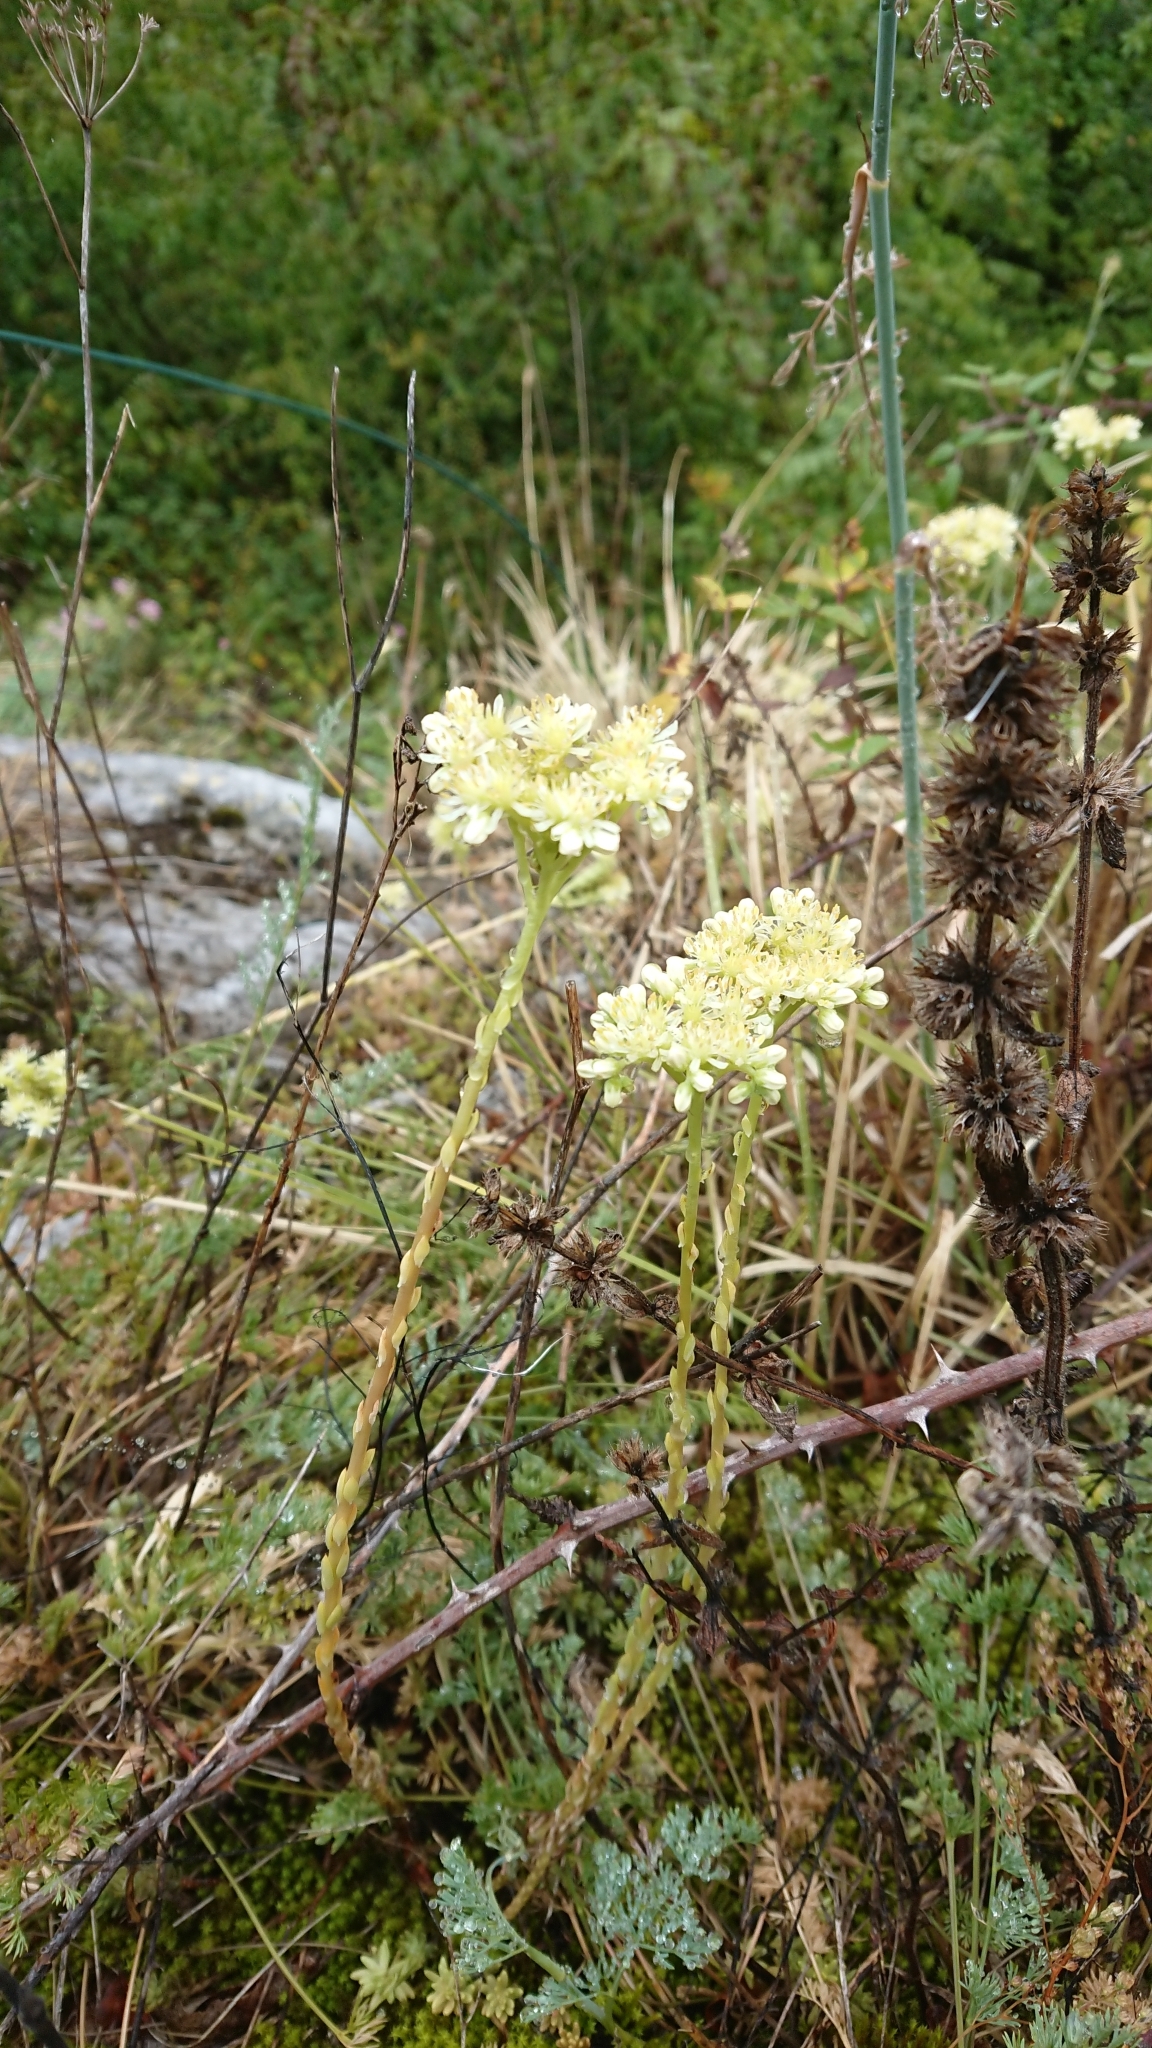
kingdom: Plantae
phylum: Tracheophyta
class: Magnoliopsida
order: Saxifragales
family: Crassulaceae
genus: Petrosedum
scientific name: Petrosedum sediforme
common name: Pale stonecrop
